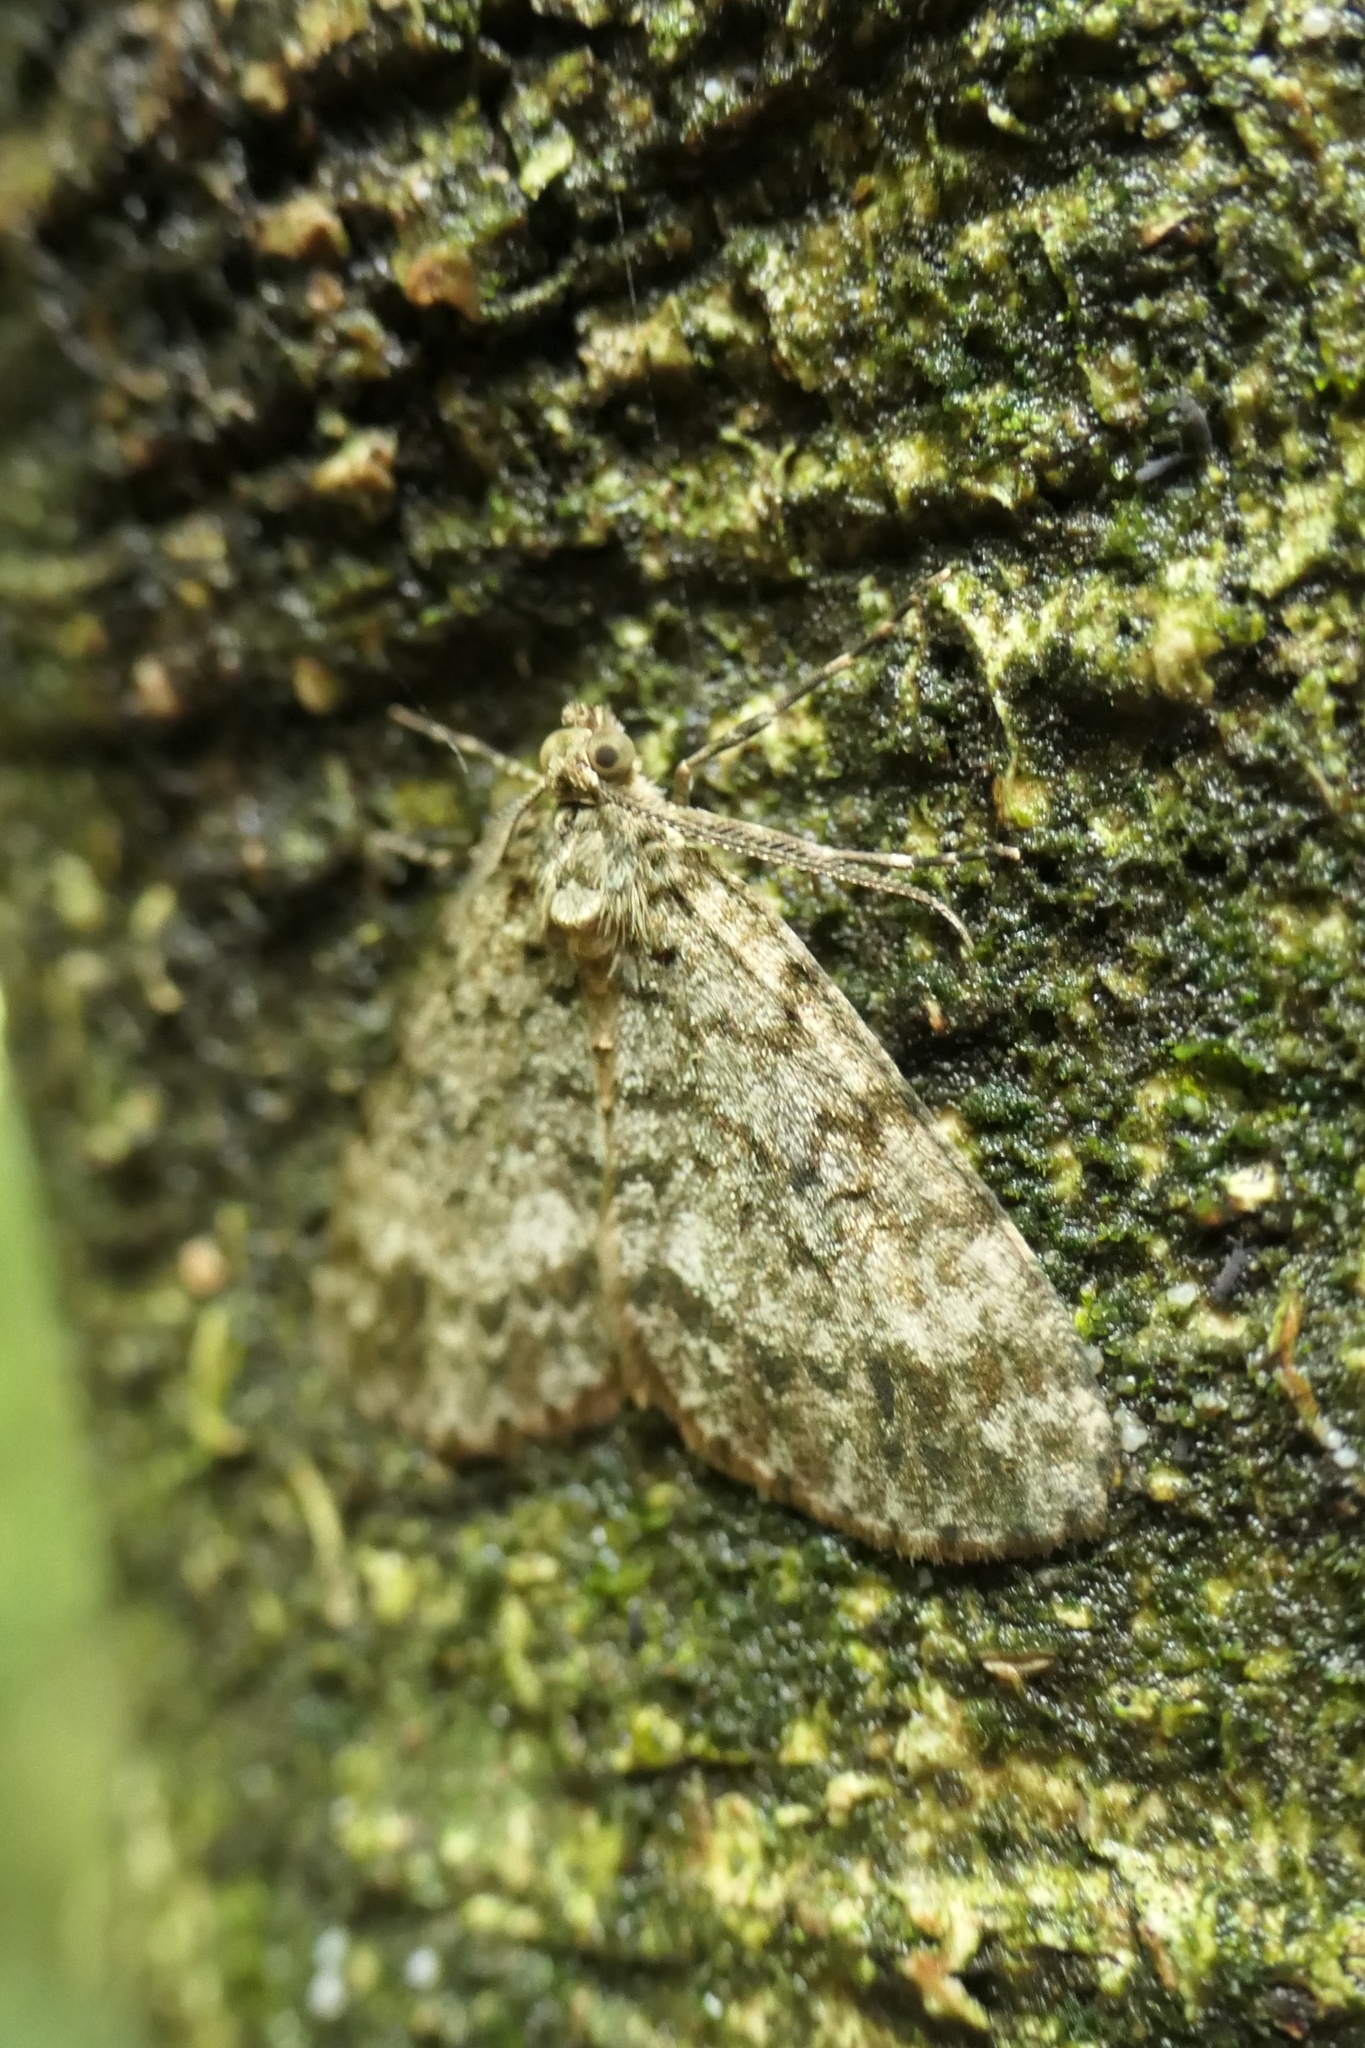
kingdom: Animalia
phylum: Arthropoda
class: Insecta
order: Lepidoptera
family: Geometridae
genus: Pseudocoremia
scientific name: Pseudocoremia indistincta
